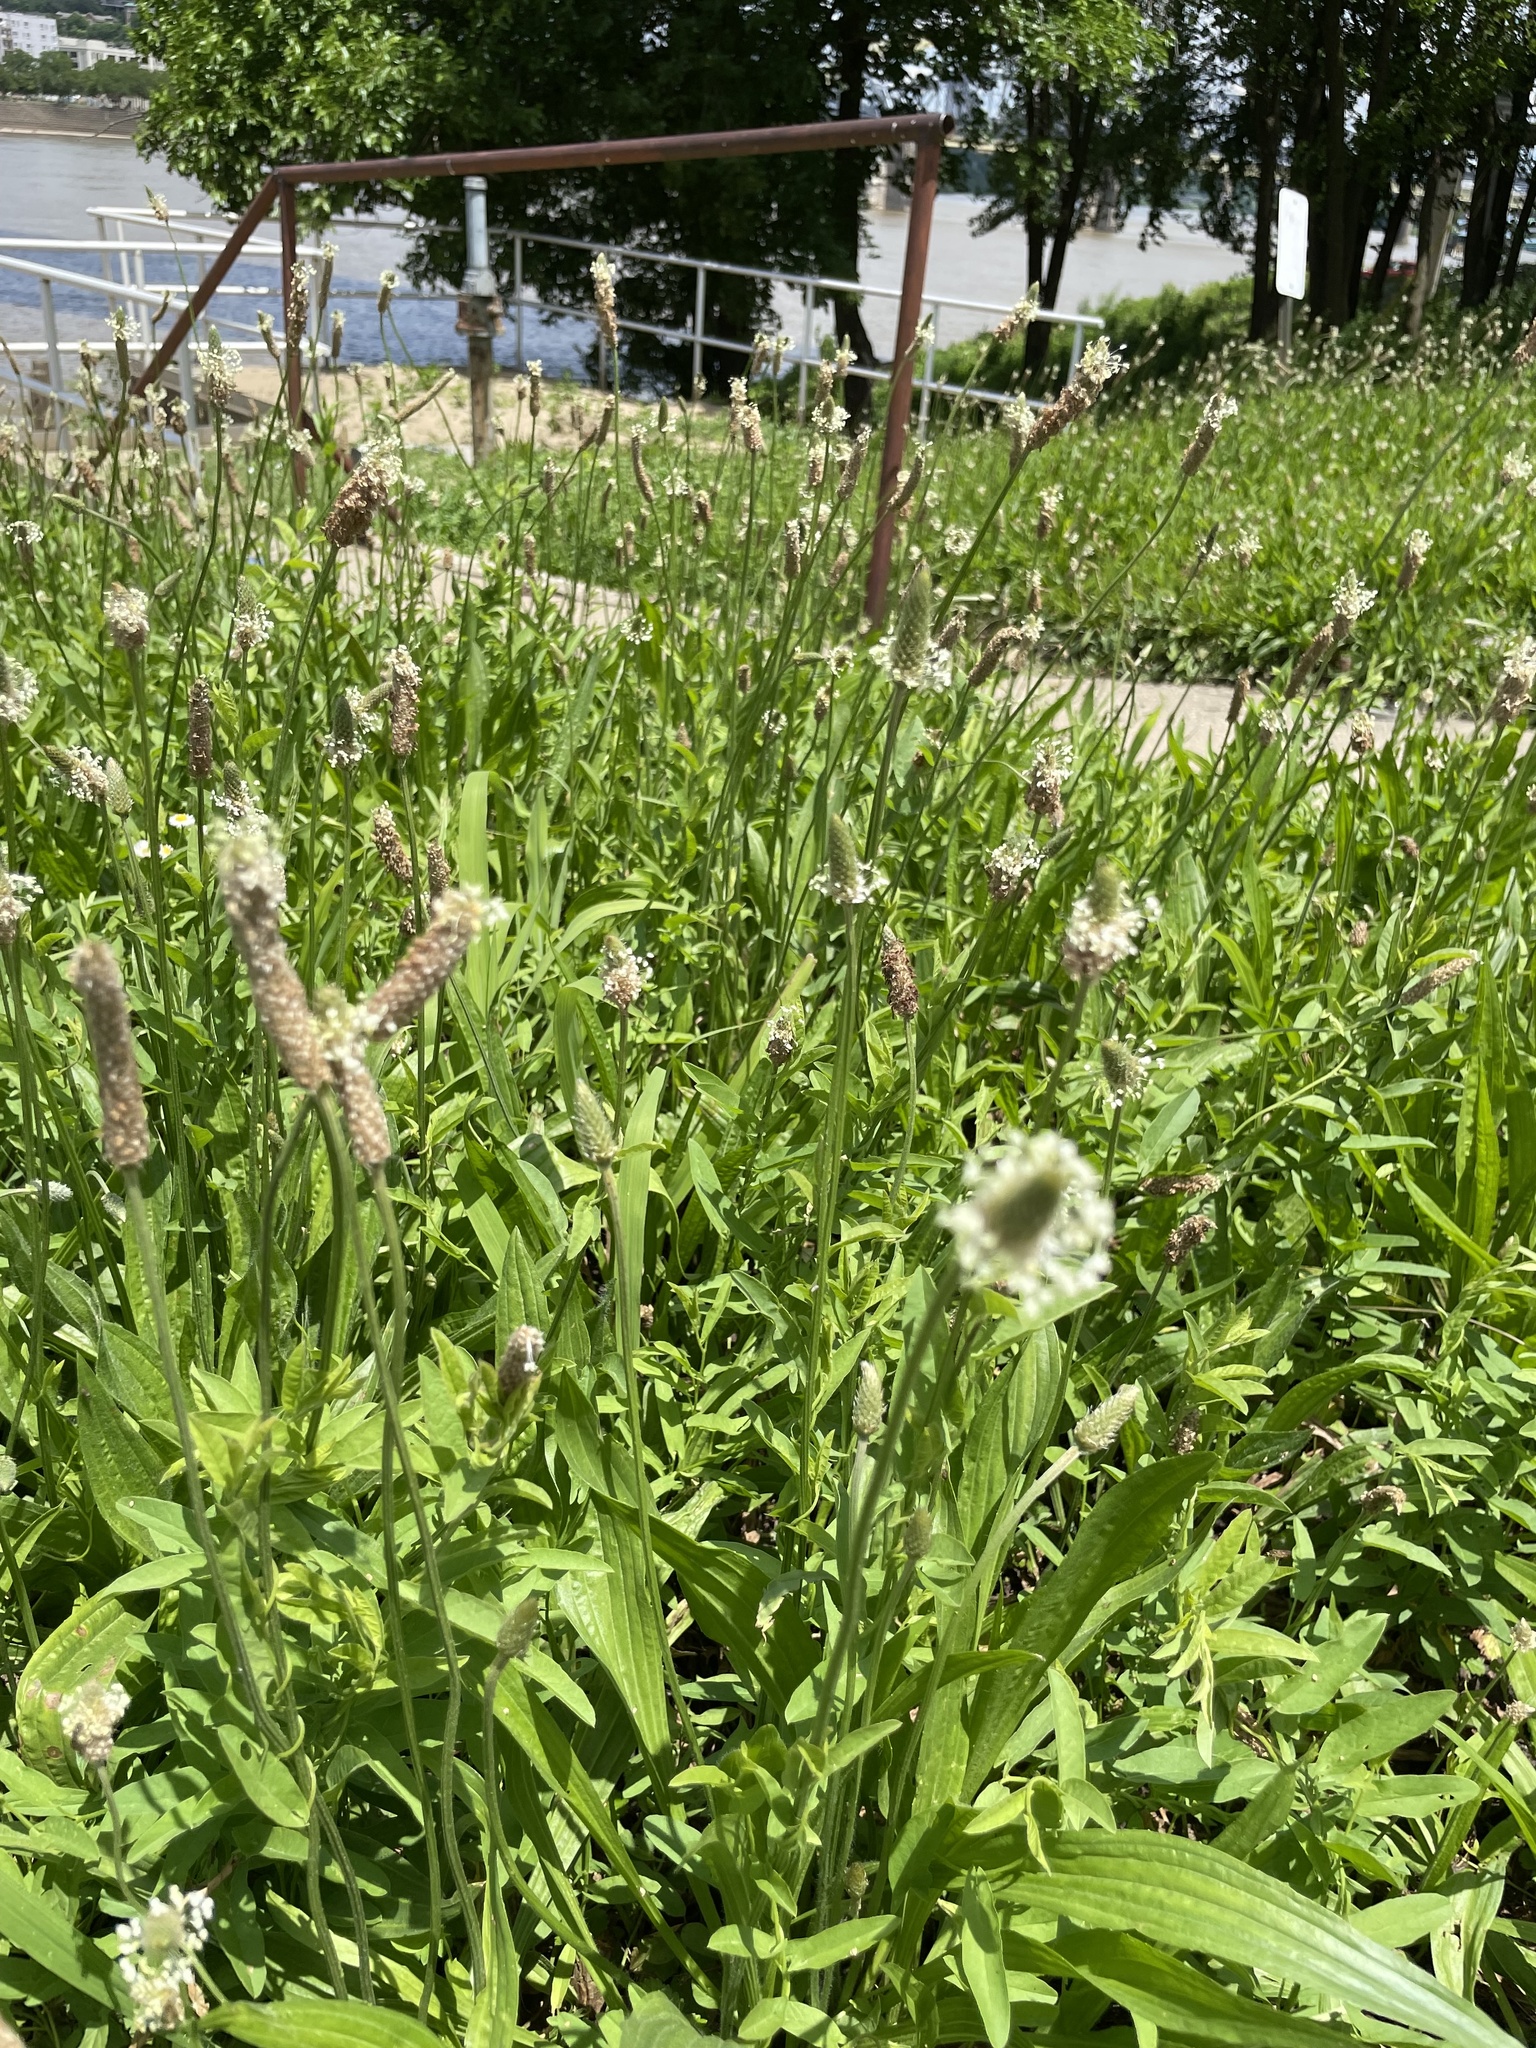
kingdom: Plantae
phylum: Tracheophyta
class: Magnoliopsida
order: Lamiales
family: Plantaginaceae
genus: Plantago
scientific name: Plantago lanceolata
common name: Ribwort plantain
